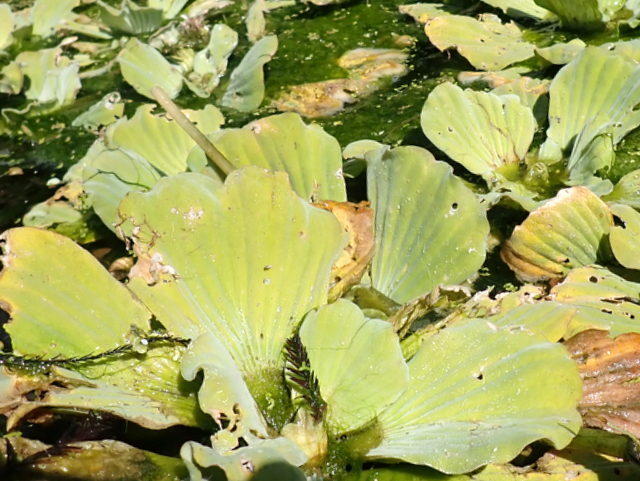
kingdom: Plantae
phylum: Tracheophyta
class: Liliopsida
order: Alismatales
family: Araceae
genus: Pistia
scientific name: Pistia stratiotes
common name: Water lettuce
